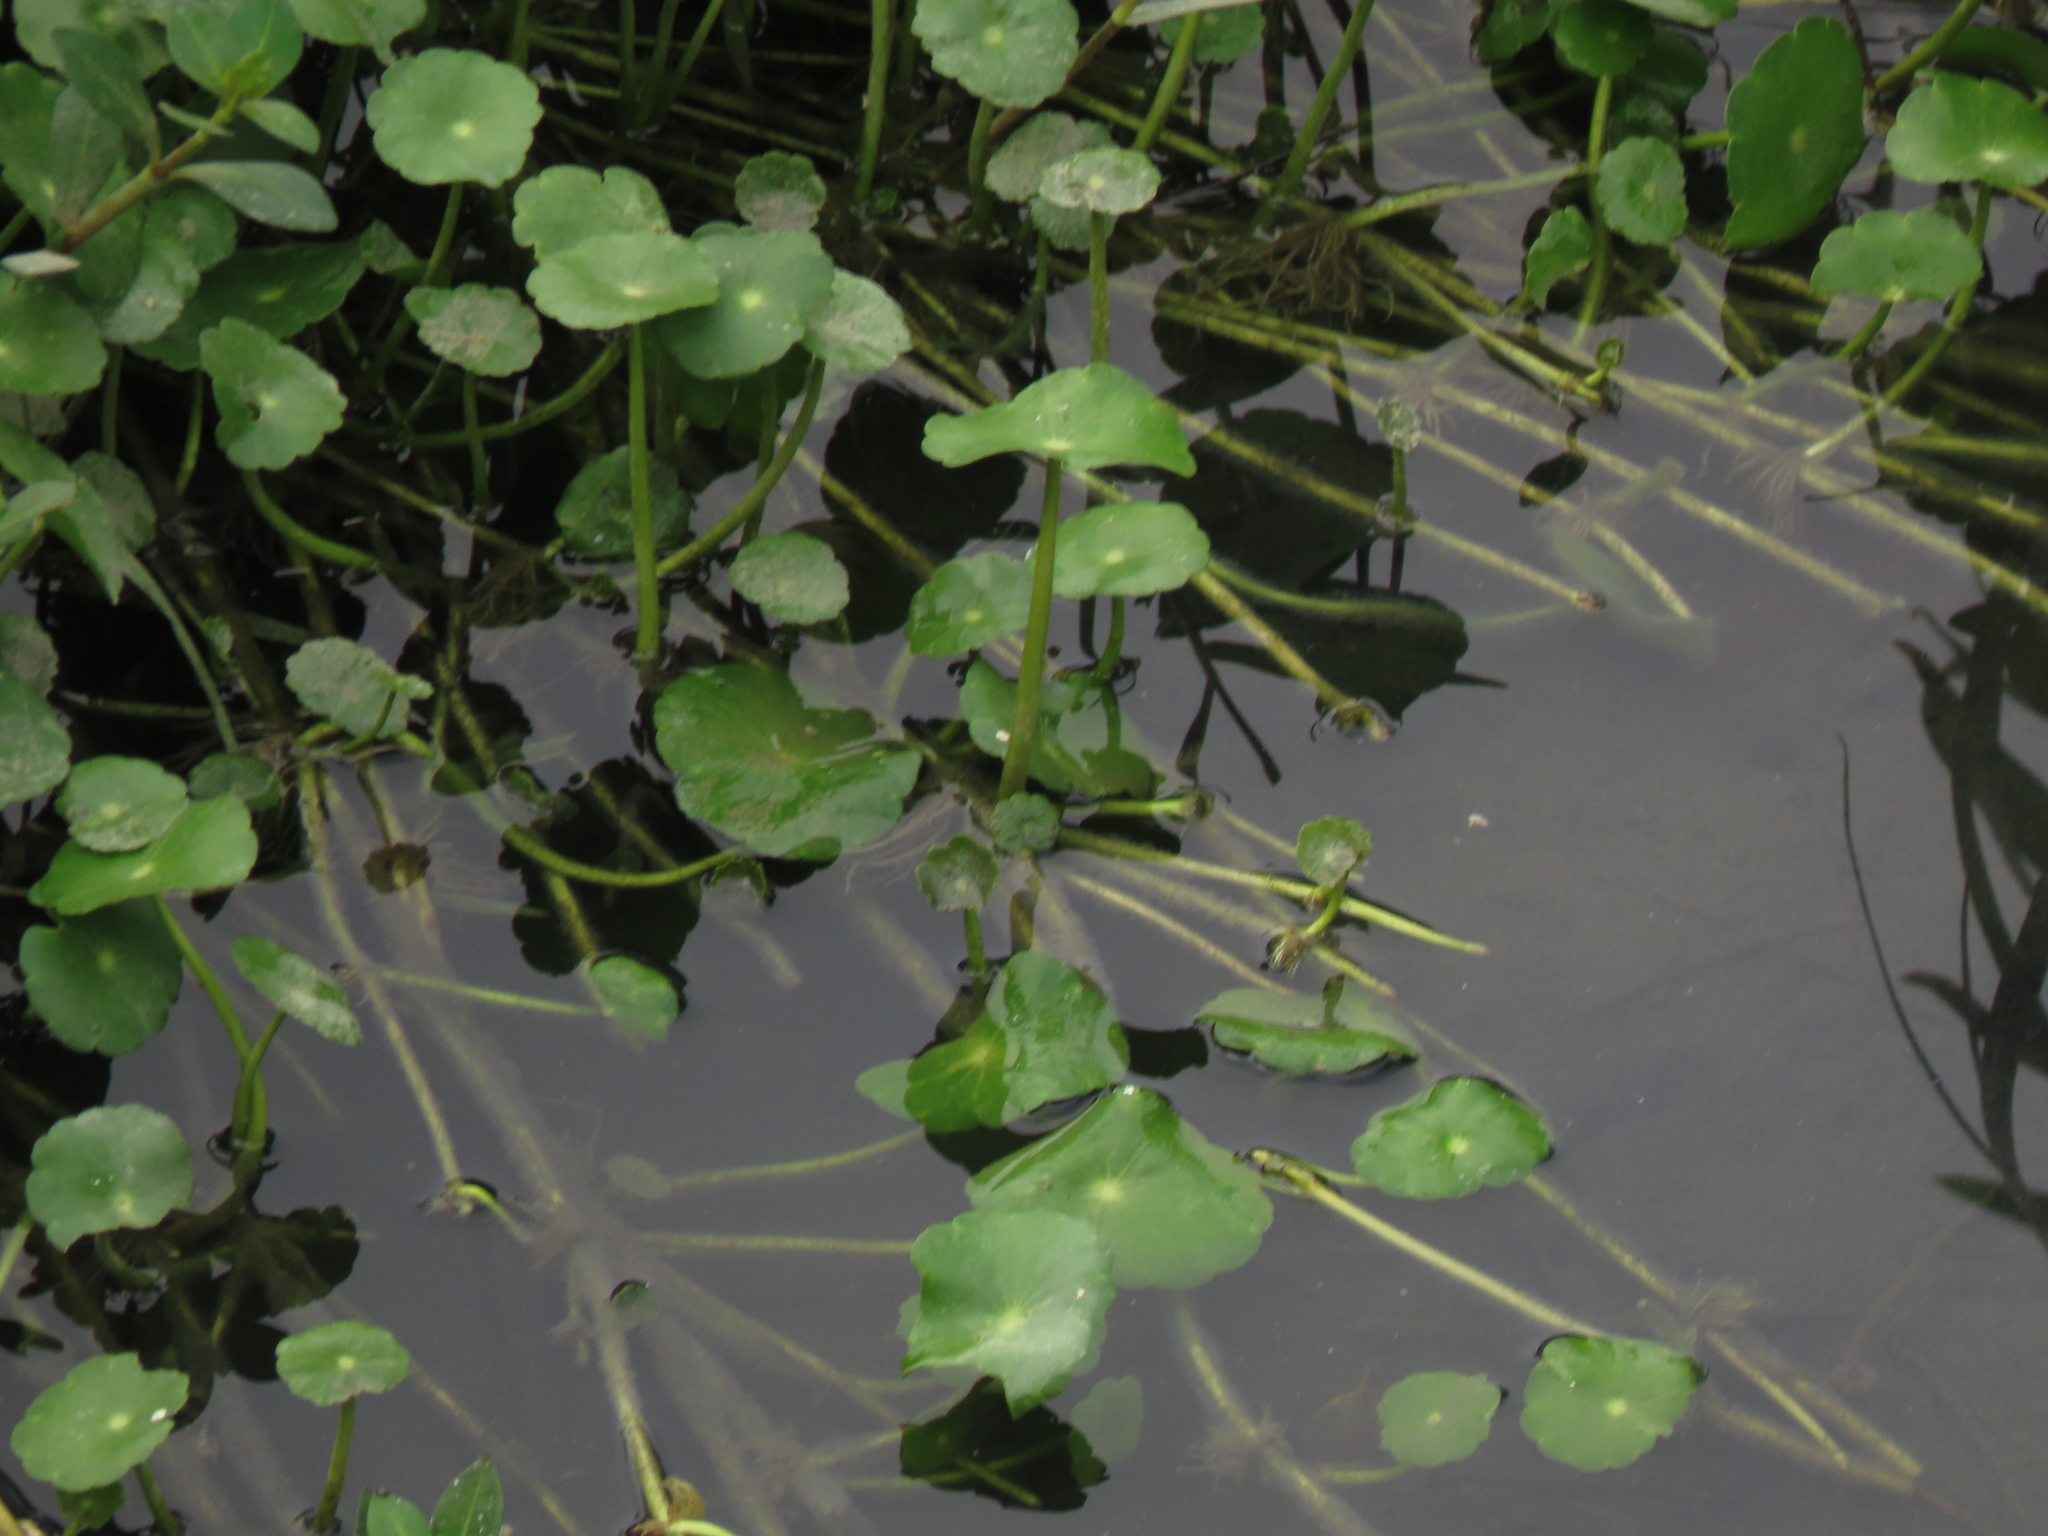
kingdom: Plantae
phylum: Tracheophyta
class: Magnoliopsida
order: Apiales
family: Araliaceae
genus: Hydrocotyle
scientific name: Hydrocotyle verticillata
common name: Whorled marshpennywort
